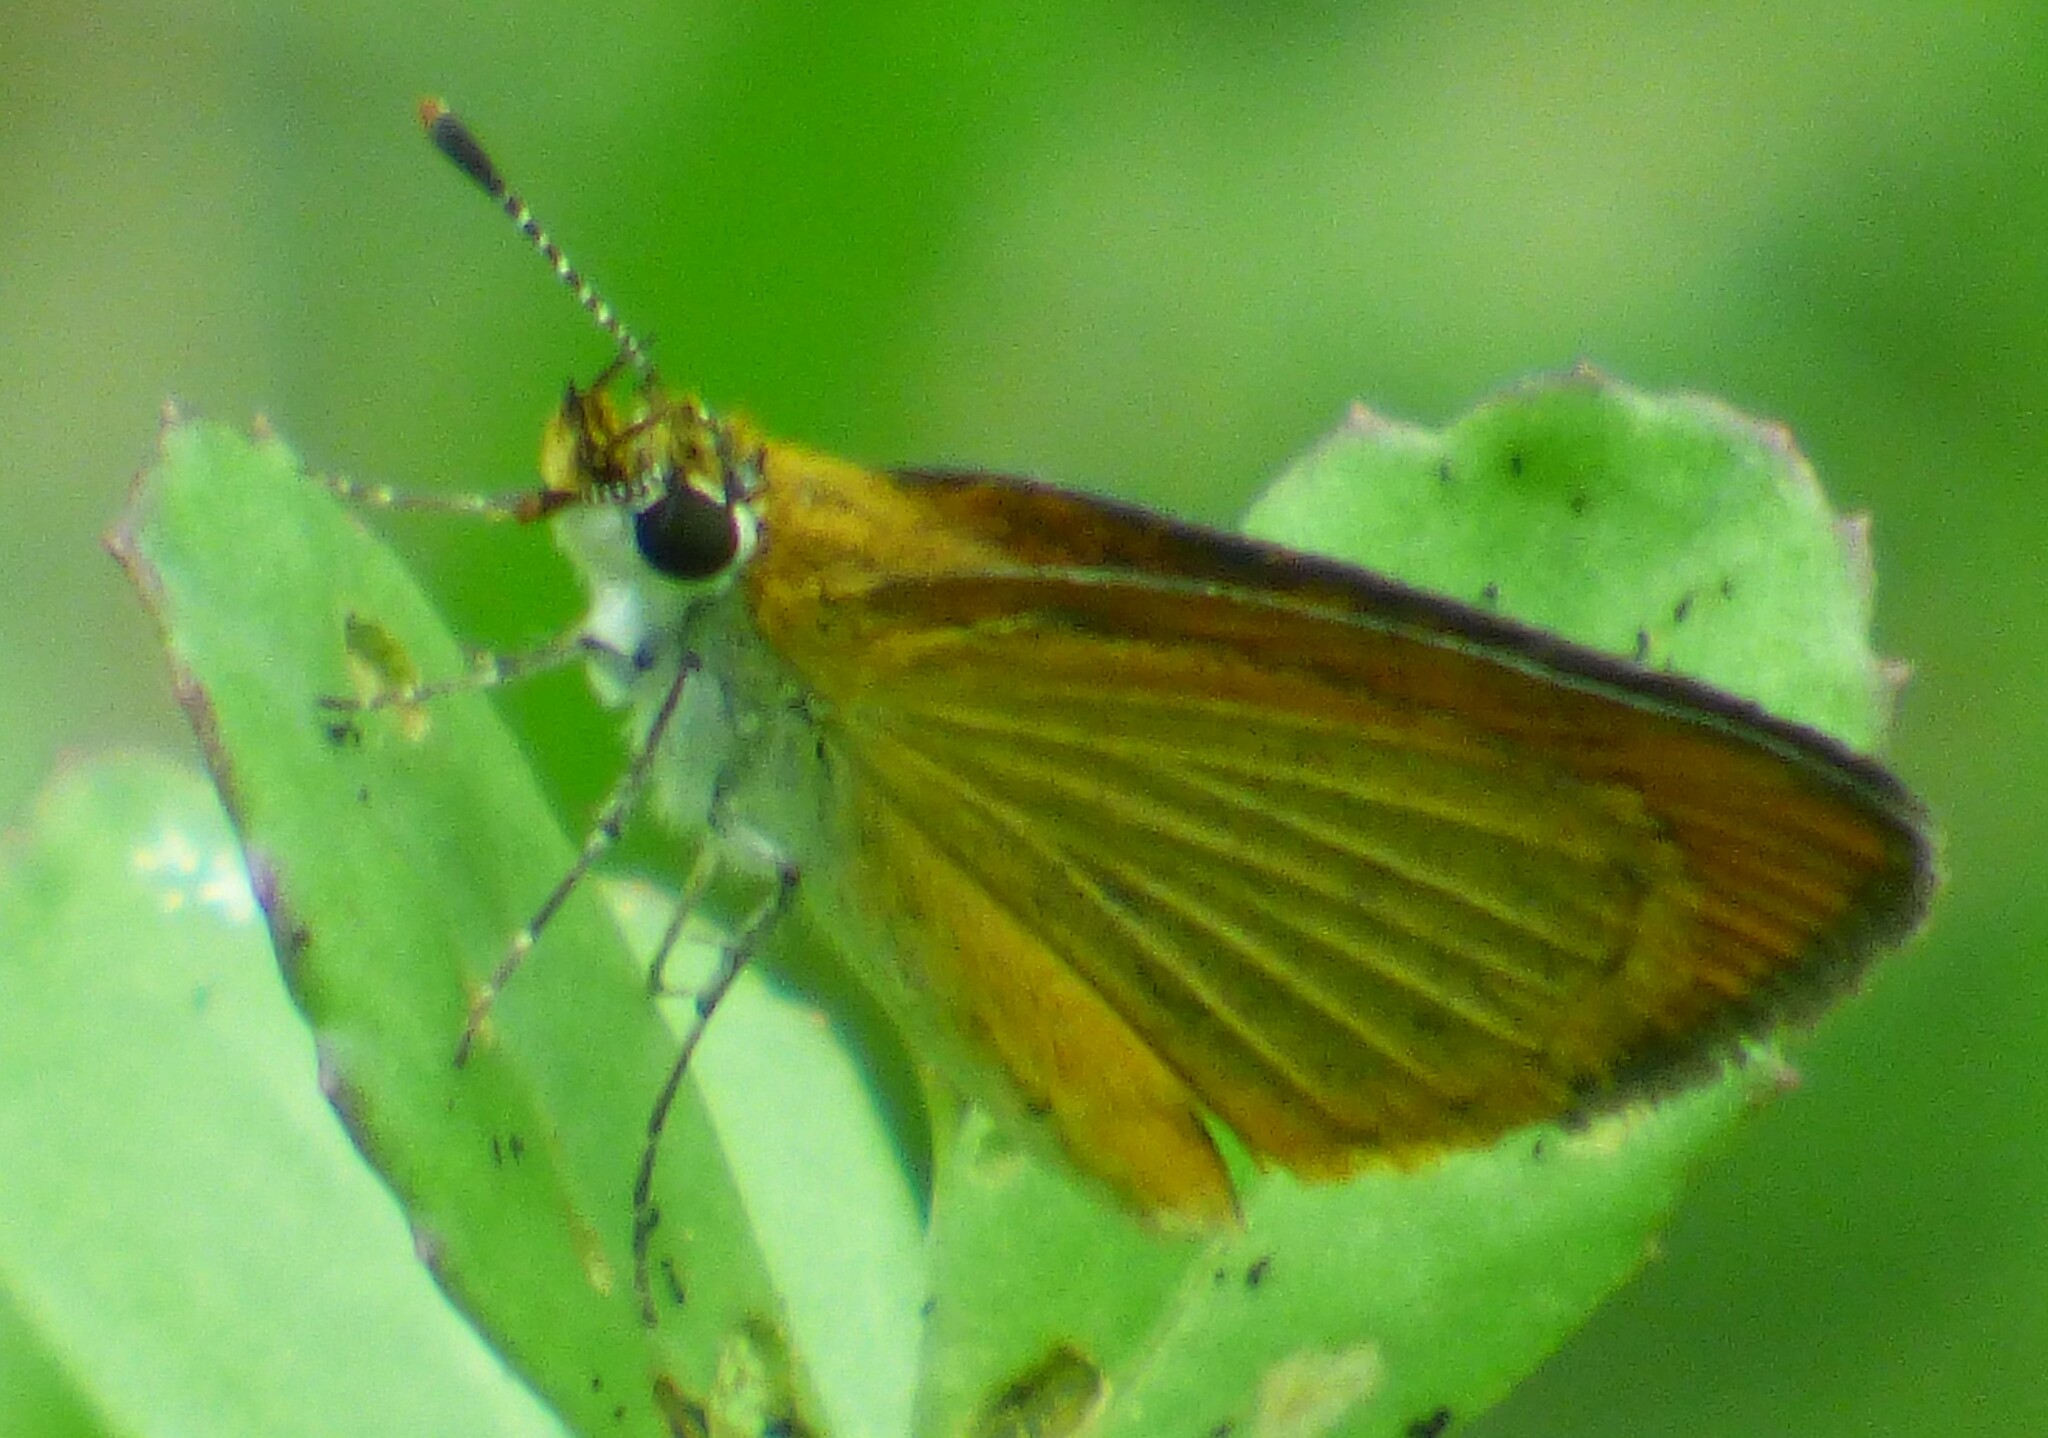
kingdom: Animalia
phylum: Arthropoda
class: Insecta
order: Lepidoptera
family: Hesperiidae
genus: Ancyloxypha
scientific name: Ancyloxypha numitor
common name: Least skipper
